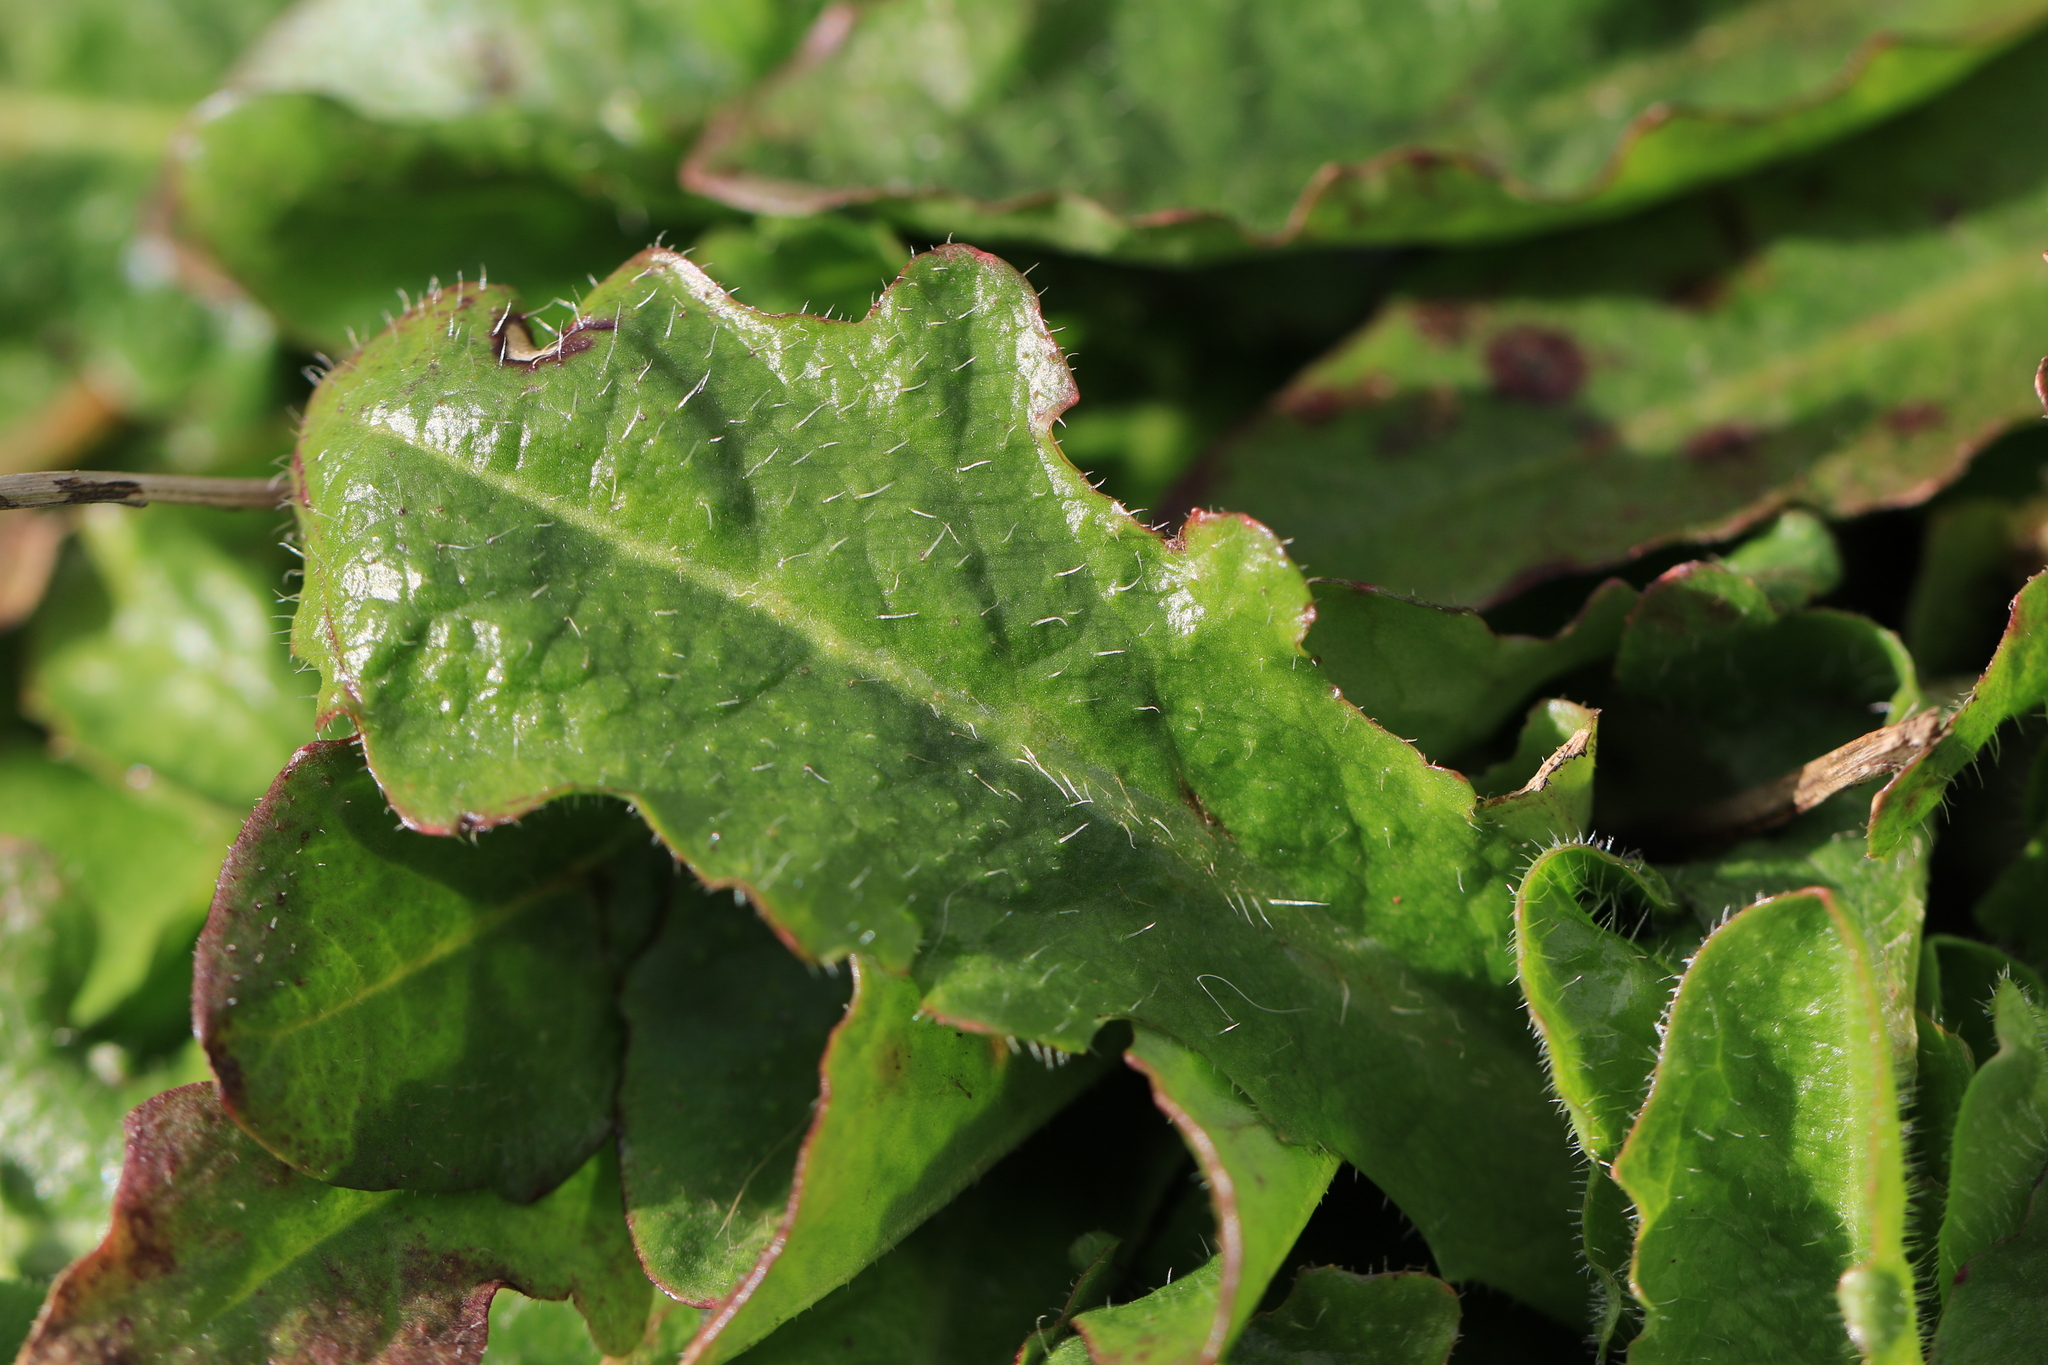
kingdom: Plantae
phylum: Tracheophyta
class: Magnoliopsida
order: Asterales
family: Asteraceae
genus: Hypochaeris
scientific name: Hypochaeris radicata
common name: Flatweed
